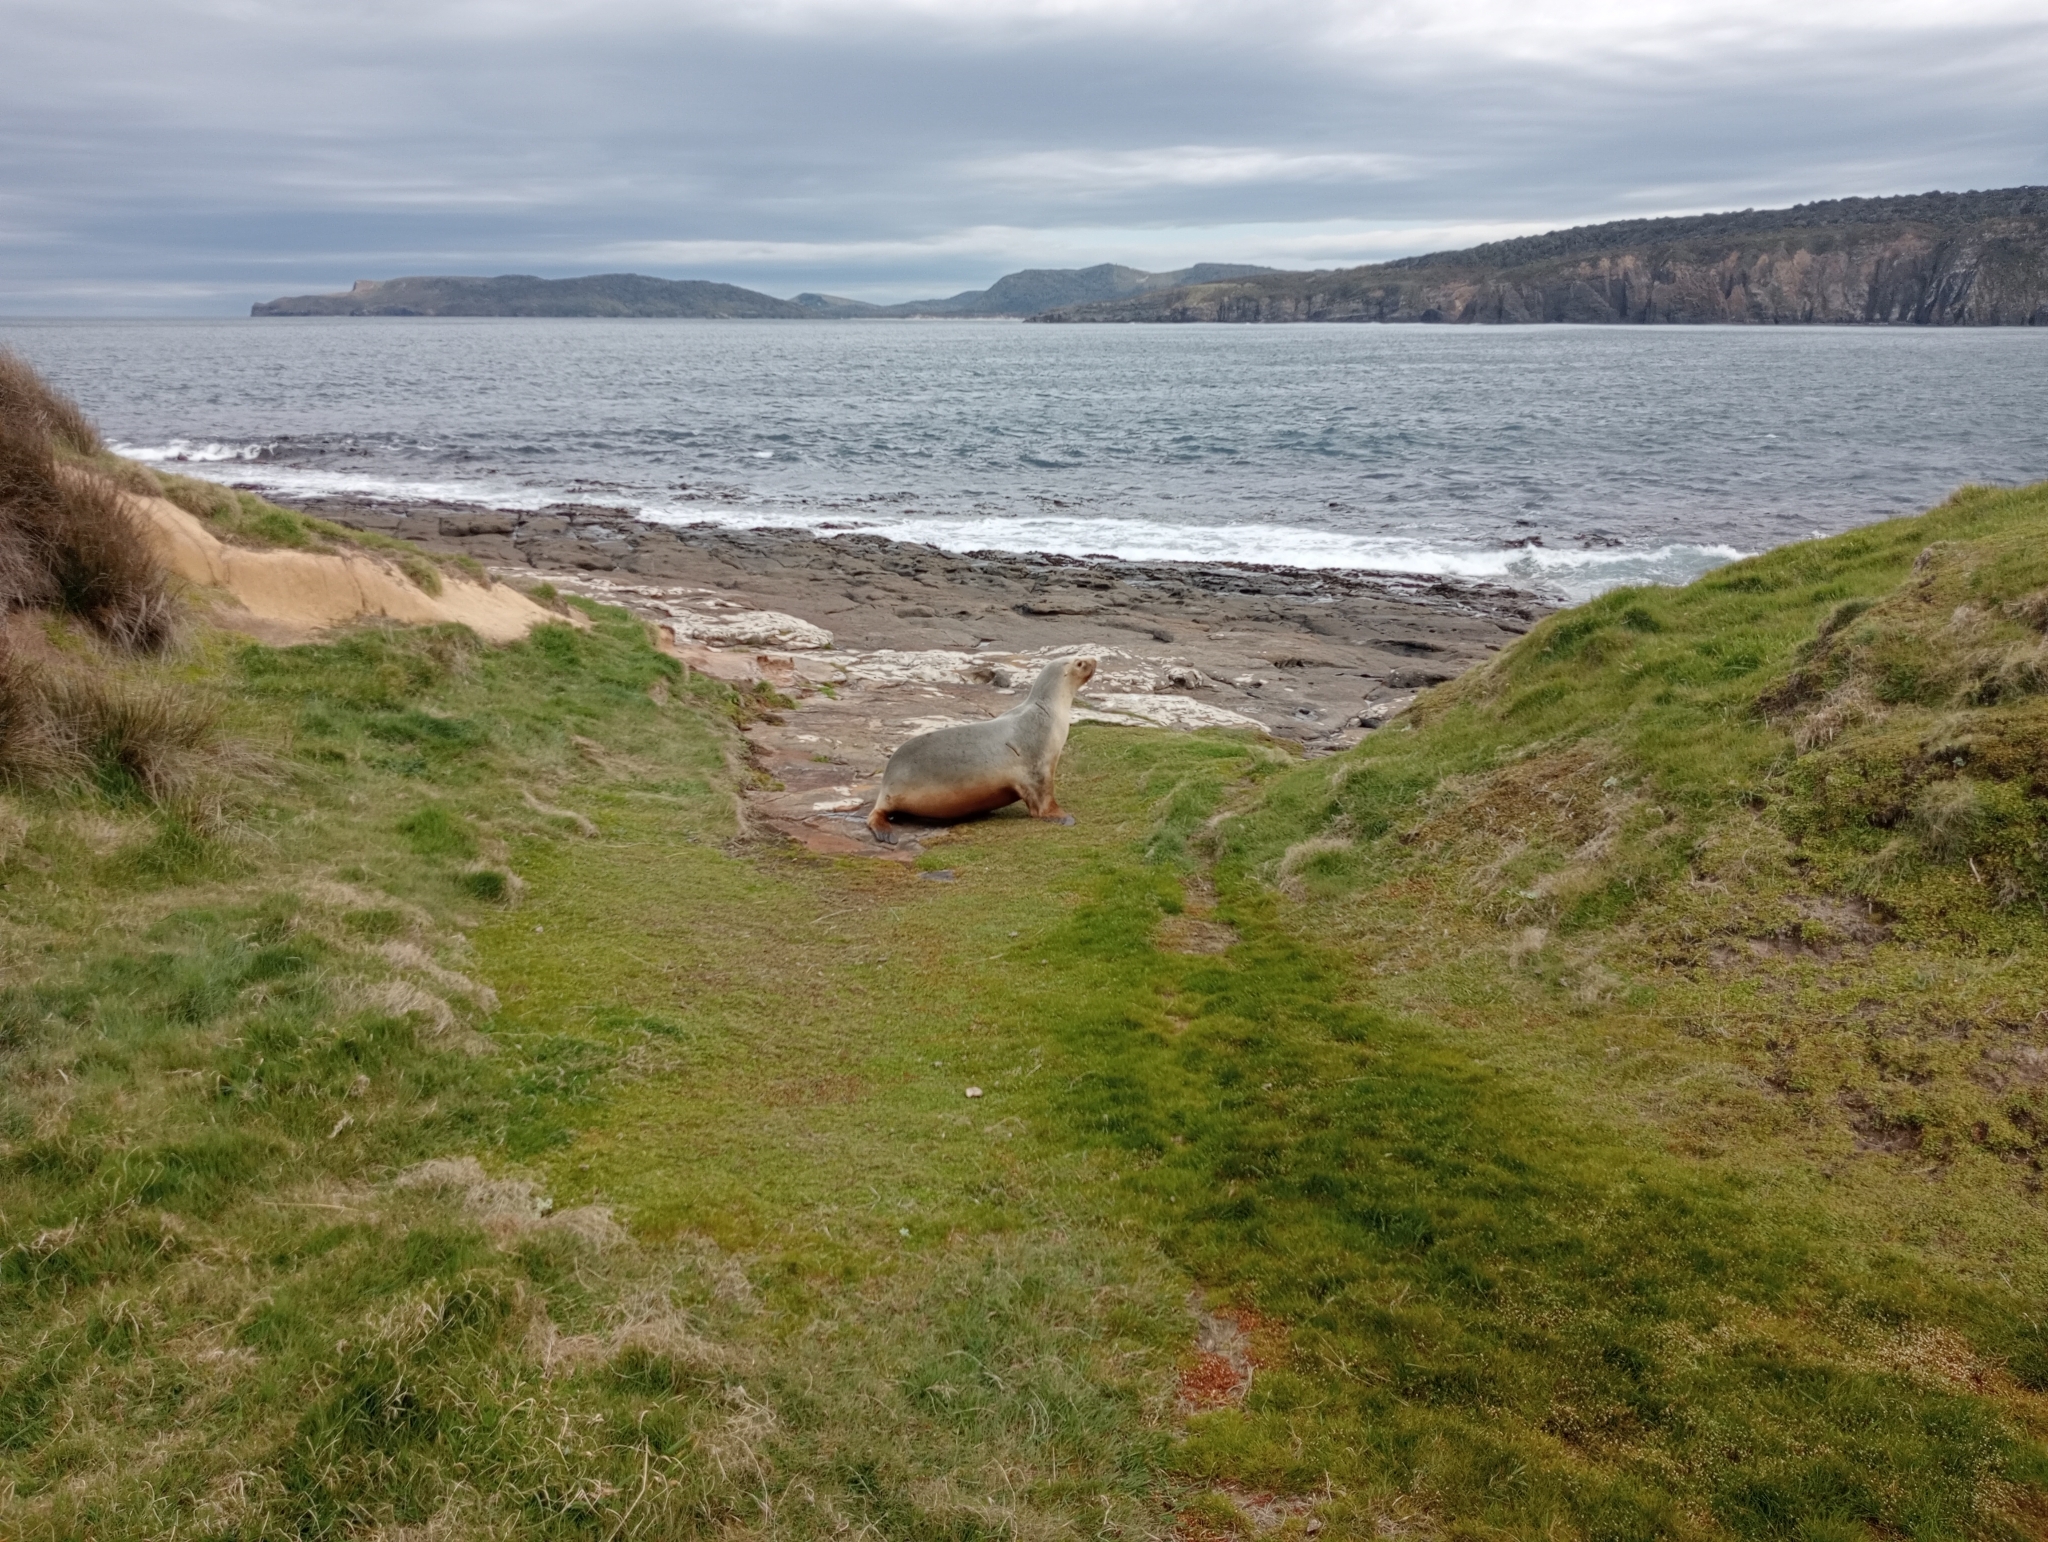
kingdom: Animalia
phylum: Chordata
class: Mammalia
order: Carnivora
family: Otariidae
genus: Phocarctos
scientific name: Phocarctos hookeri
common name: New zealand sea lion
